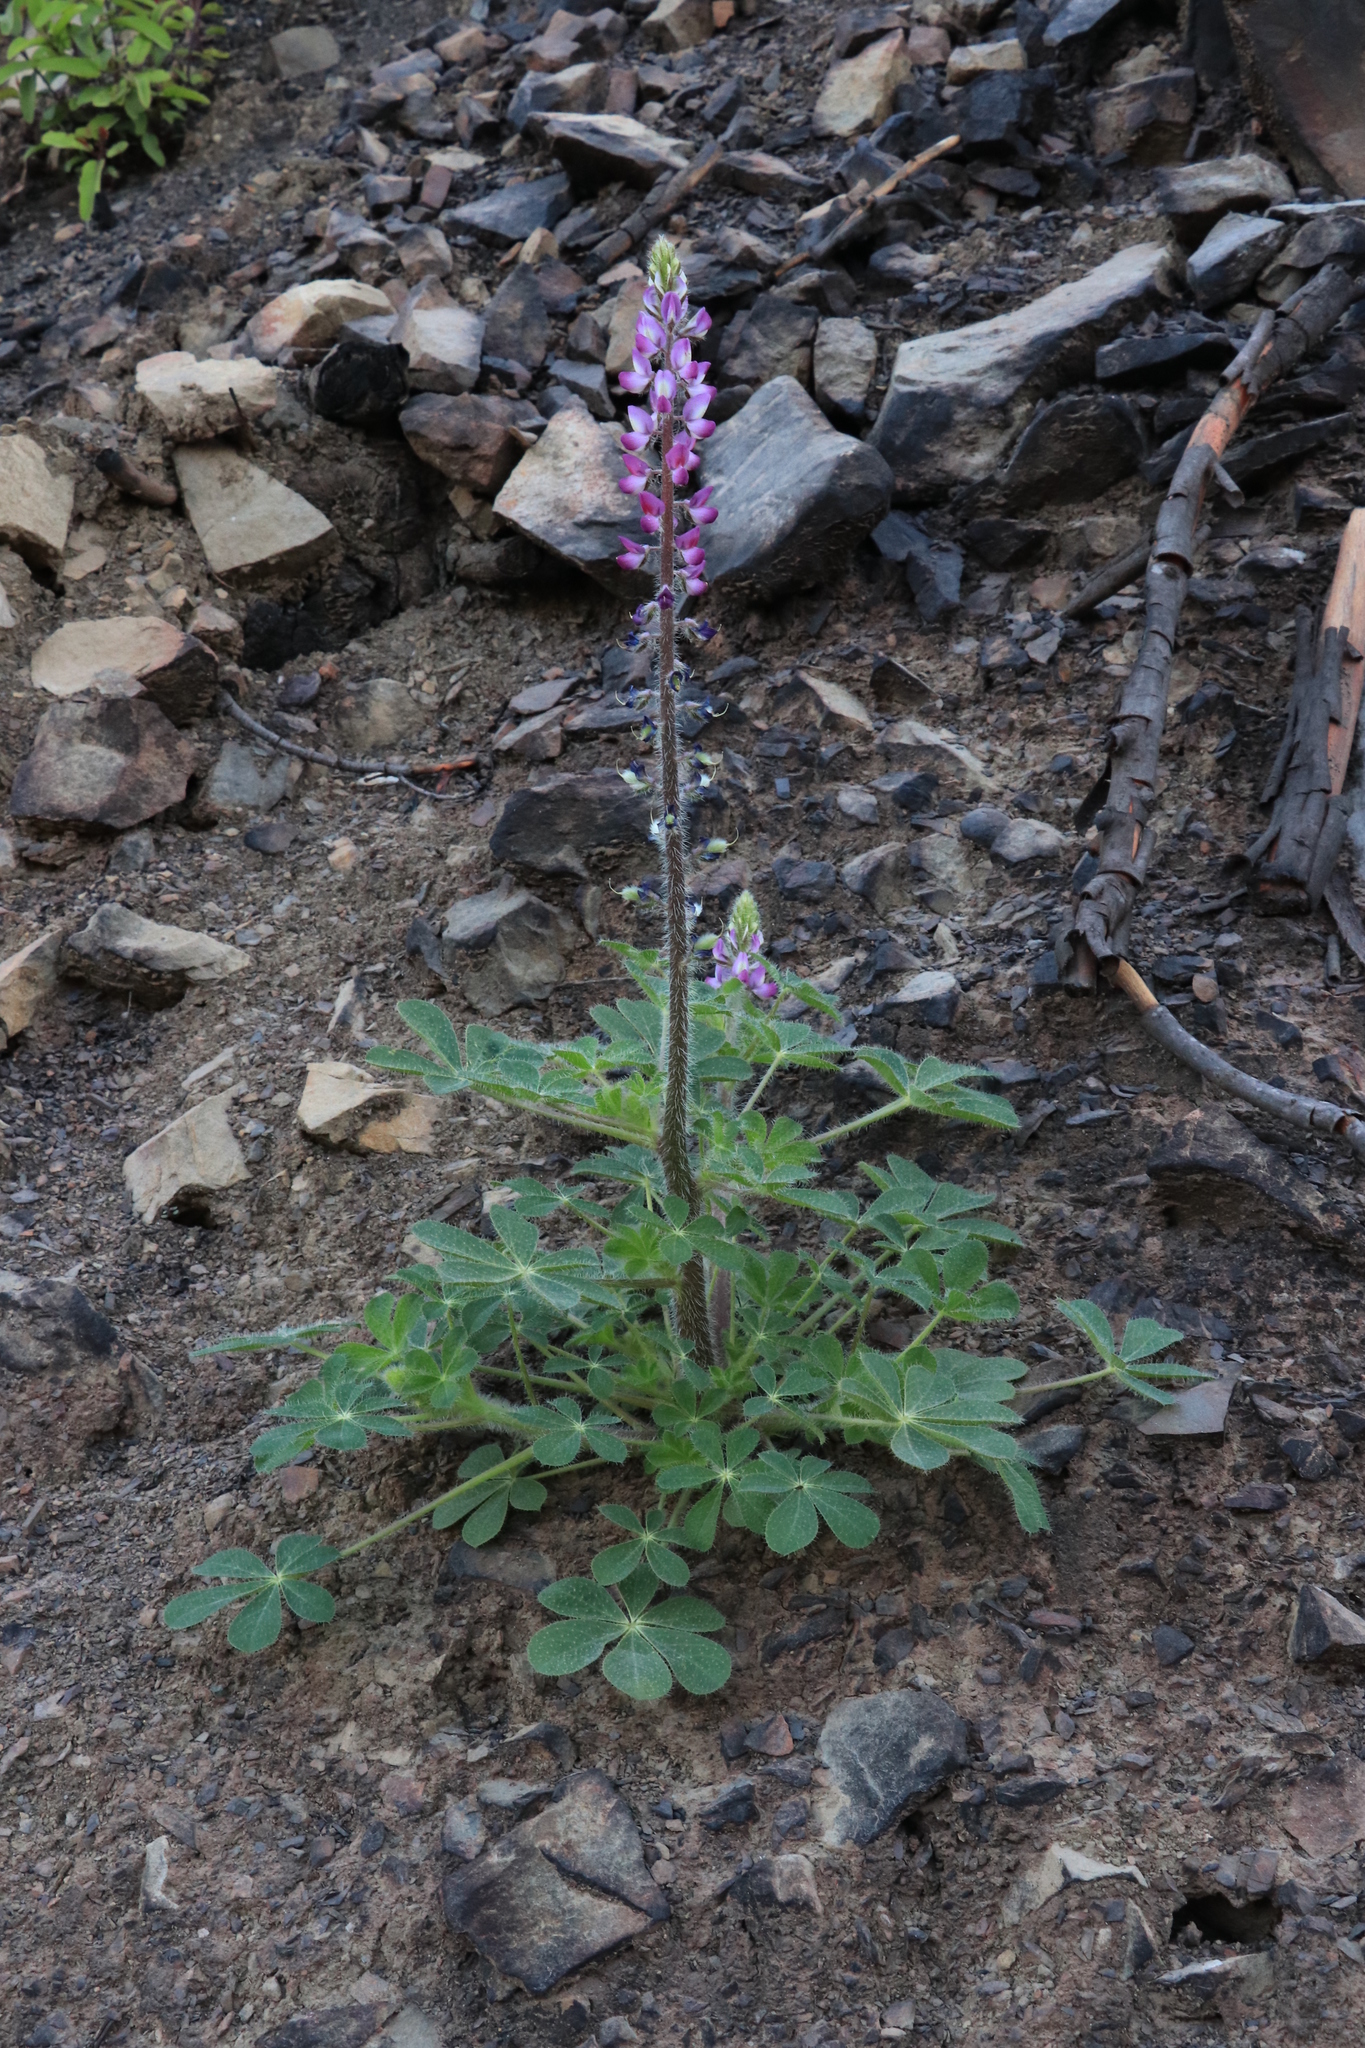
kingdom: Plantae
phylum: Tracheophyta
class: Magnoliopsida
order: Fabales
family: Fabaceae
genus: Lupinus
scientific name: Lupinus hirsutissimus
